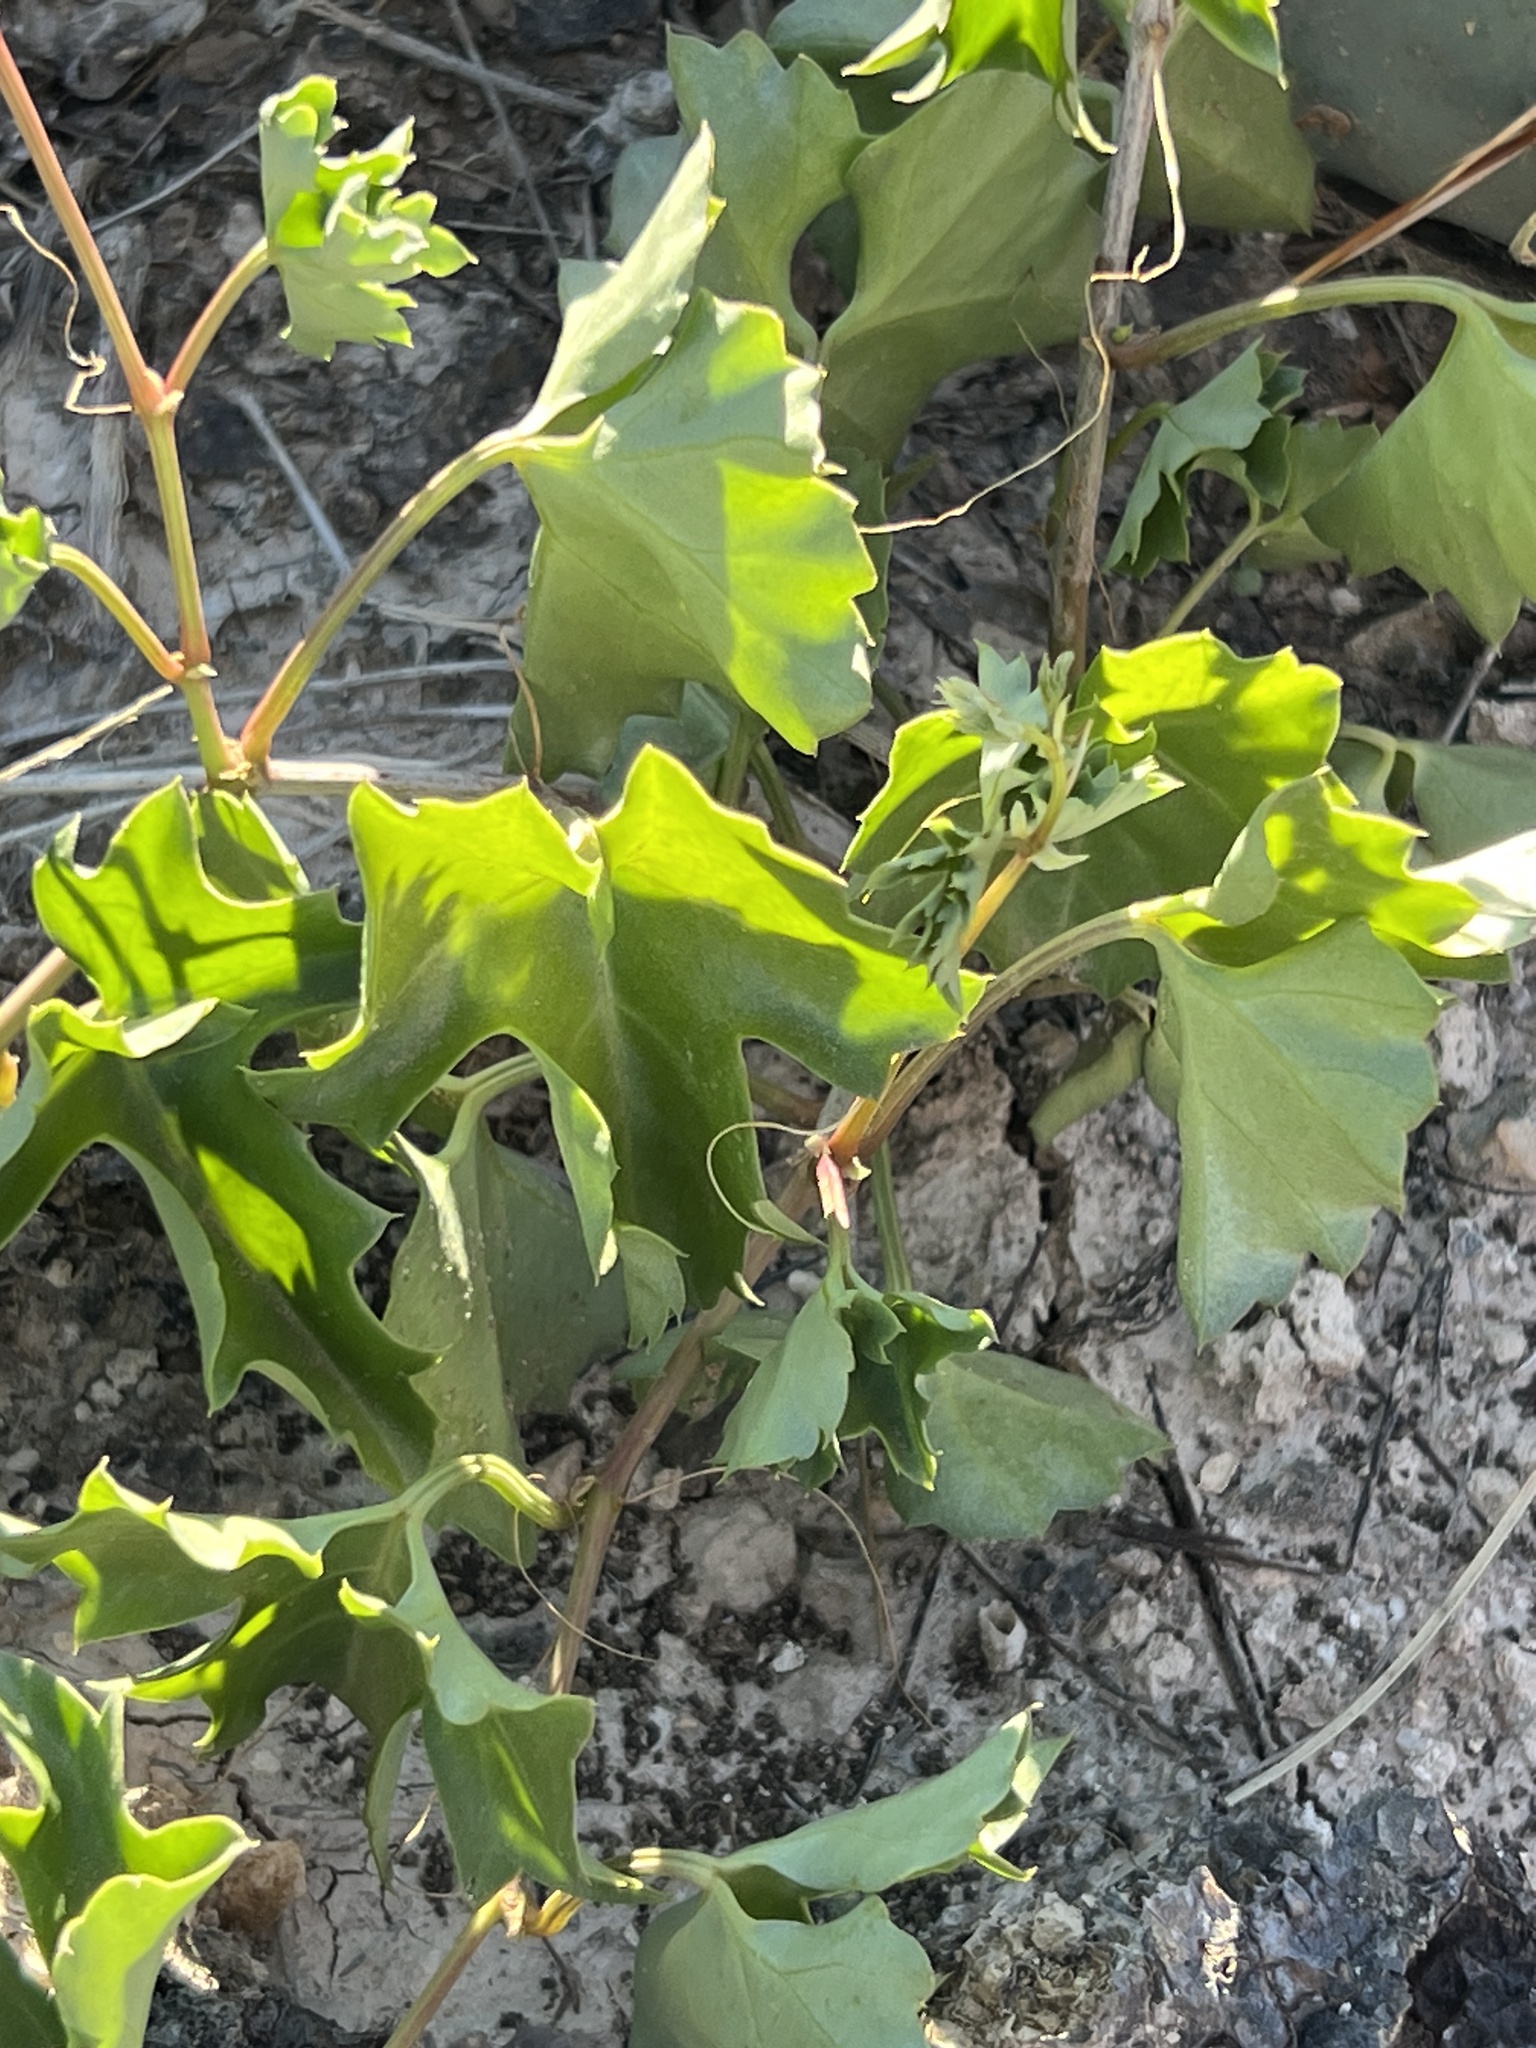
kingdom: Plantae
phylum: Tracheophyta
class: Magnoliopsida
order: Vitales
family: Vitaceae
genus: Cissus
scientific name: Cissus trifoliata
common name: Vine-sorrel
